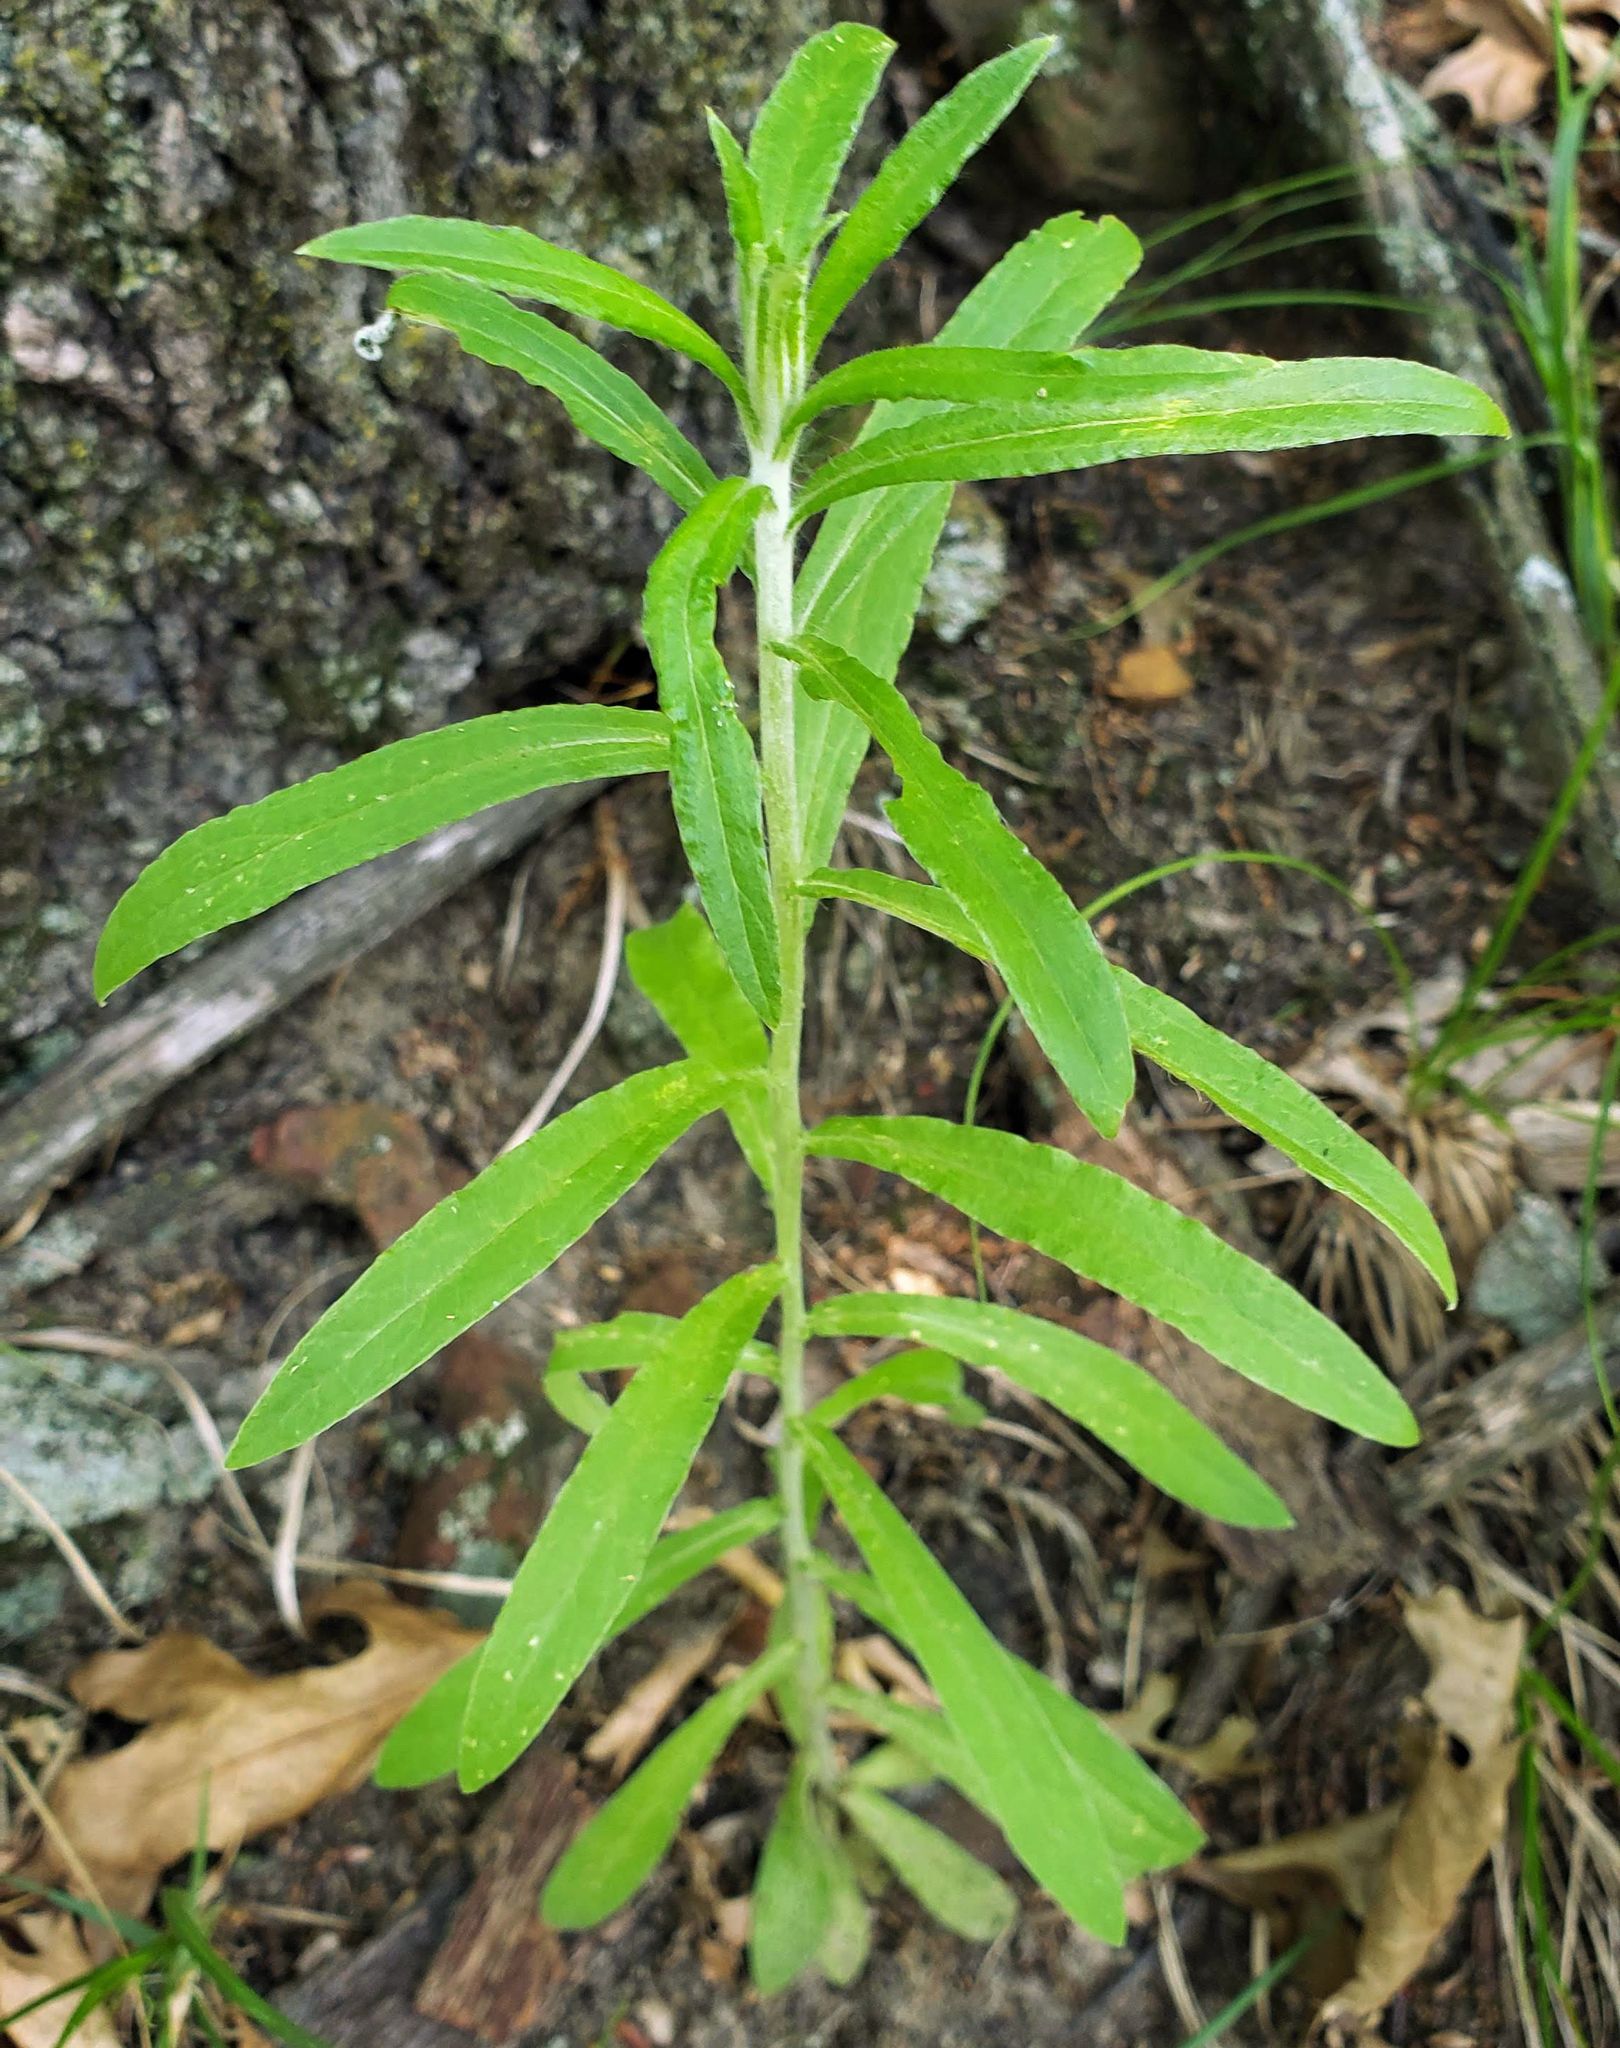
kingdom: Plantae
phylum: Tracheophyta
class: Magnoliopsida
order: Asterales
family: Asteraceae
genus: Pseudognaphalium
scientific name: Pseudognaphalium obtusifolium
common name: Eastern rabbit-tobacco
